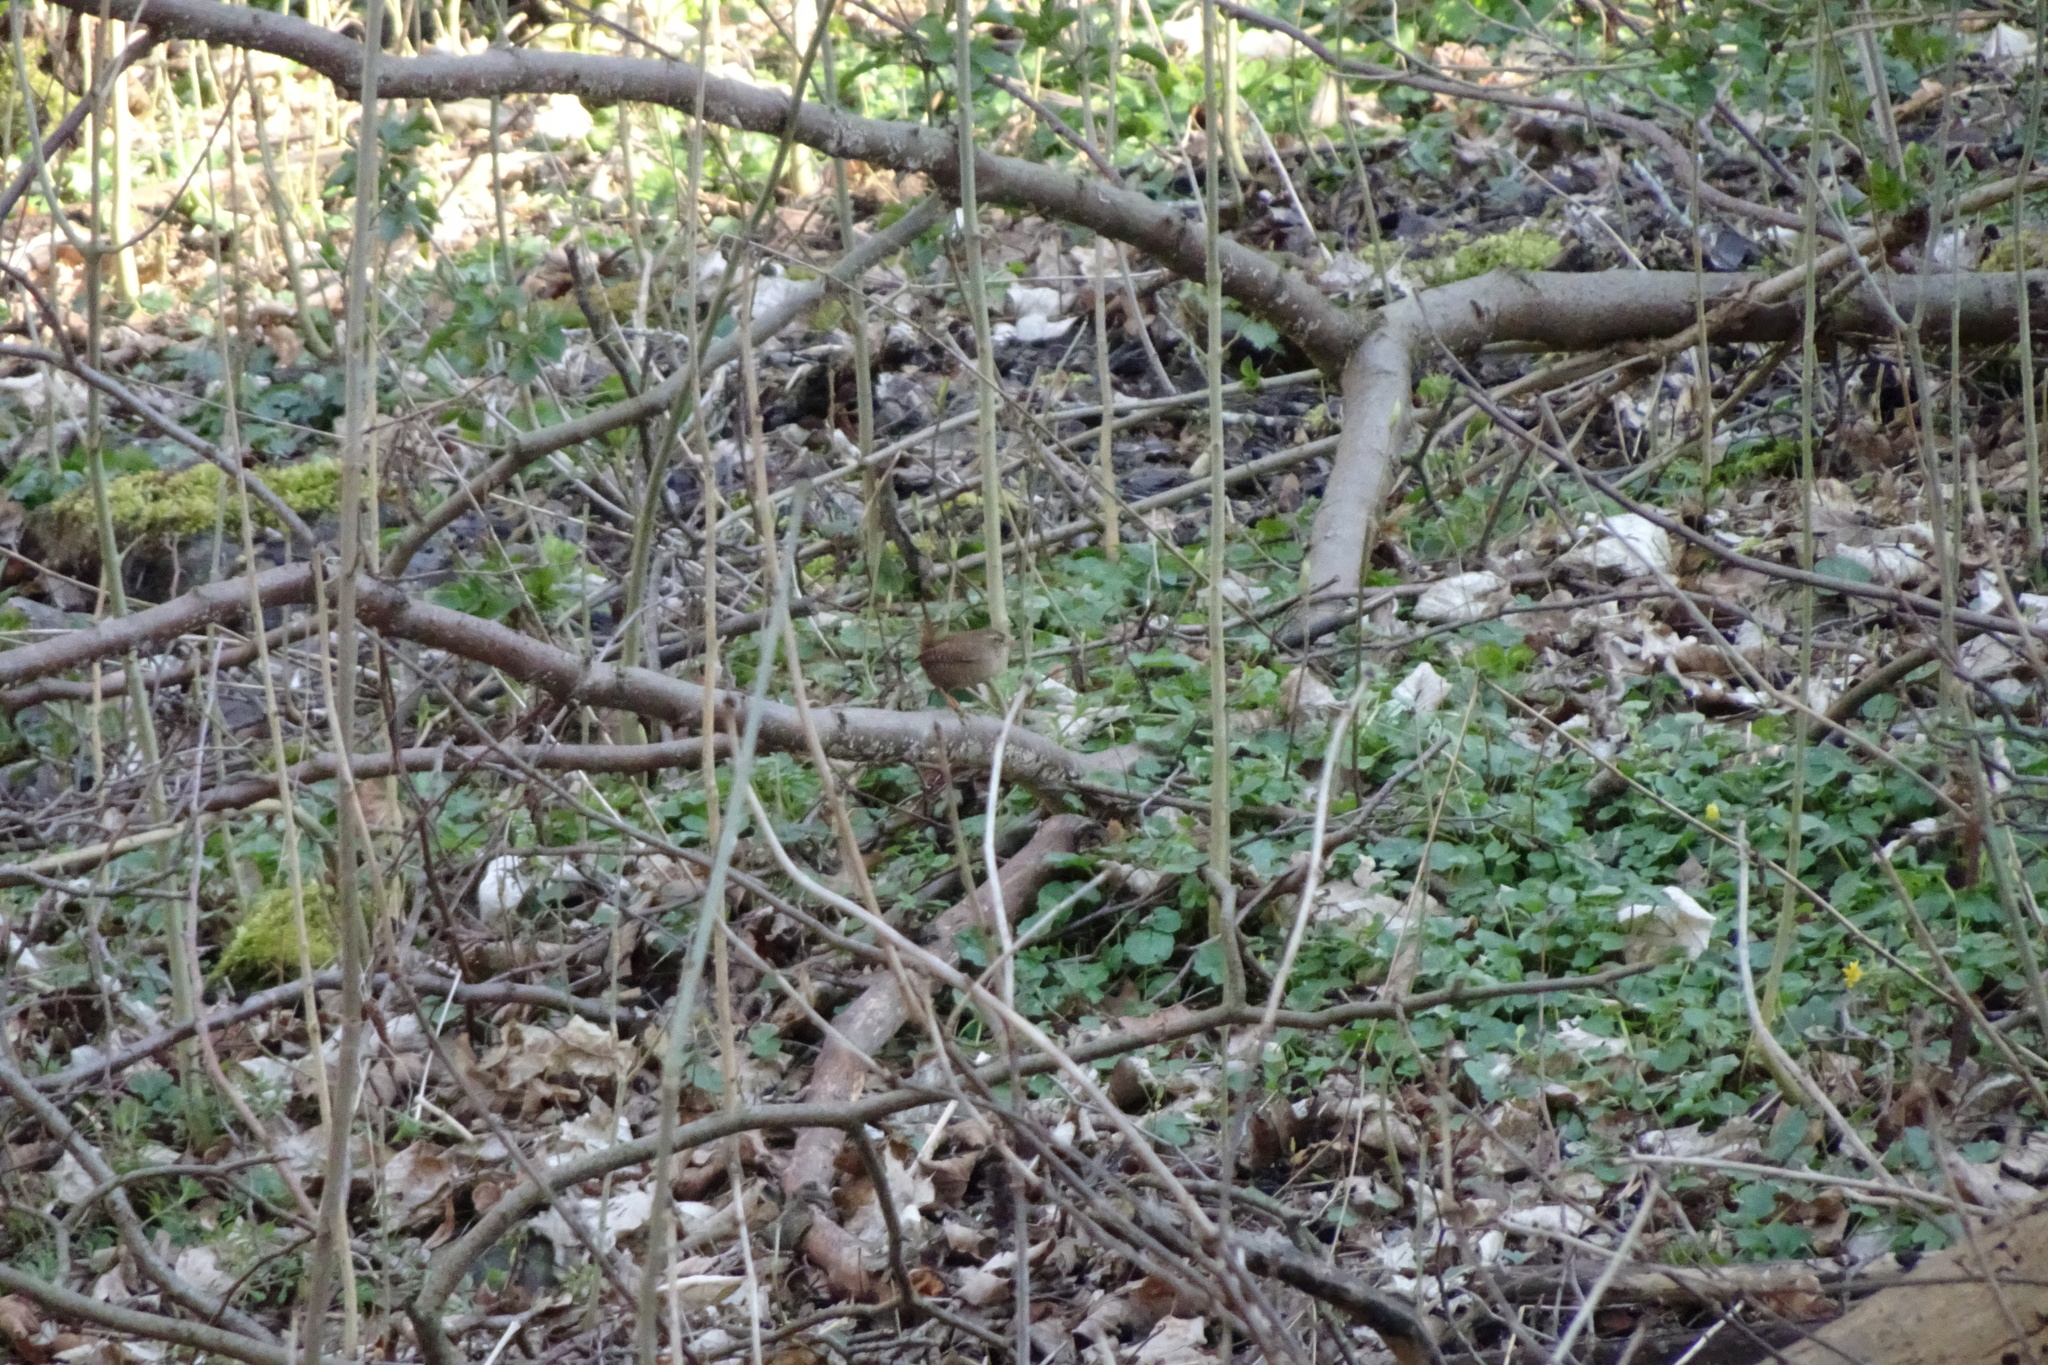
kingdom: Animalia
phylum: Chordata
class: Aves
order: Passeriformes
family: Troglodytidae
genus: Troglodytes
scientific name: Troglodytes troglodytes
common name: Eurasian wren
